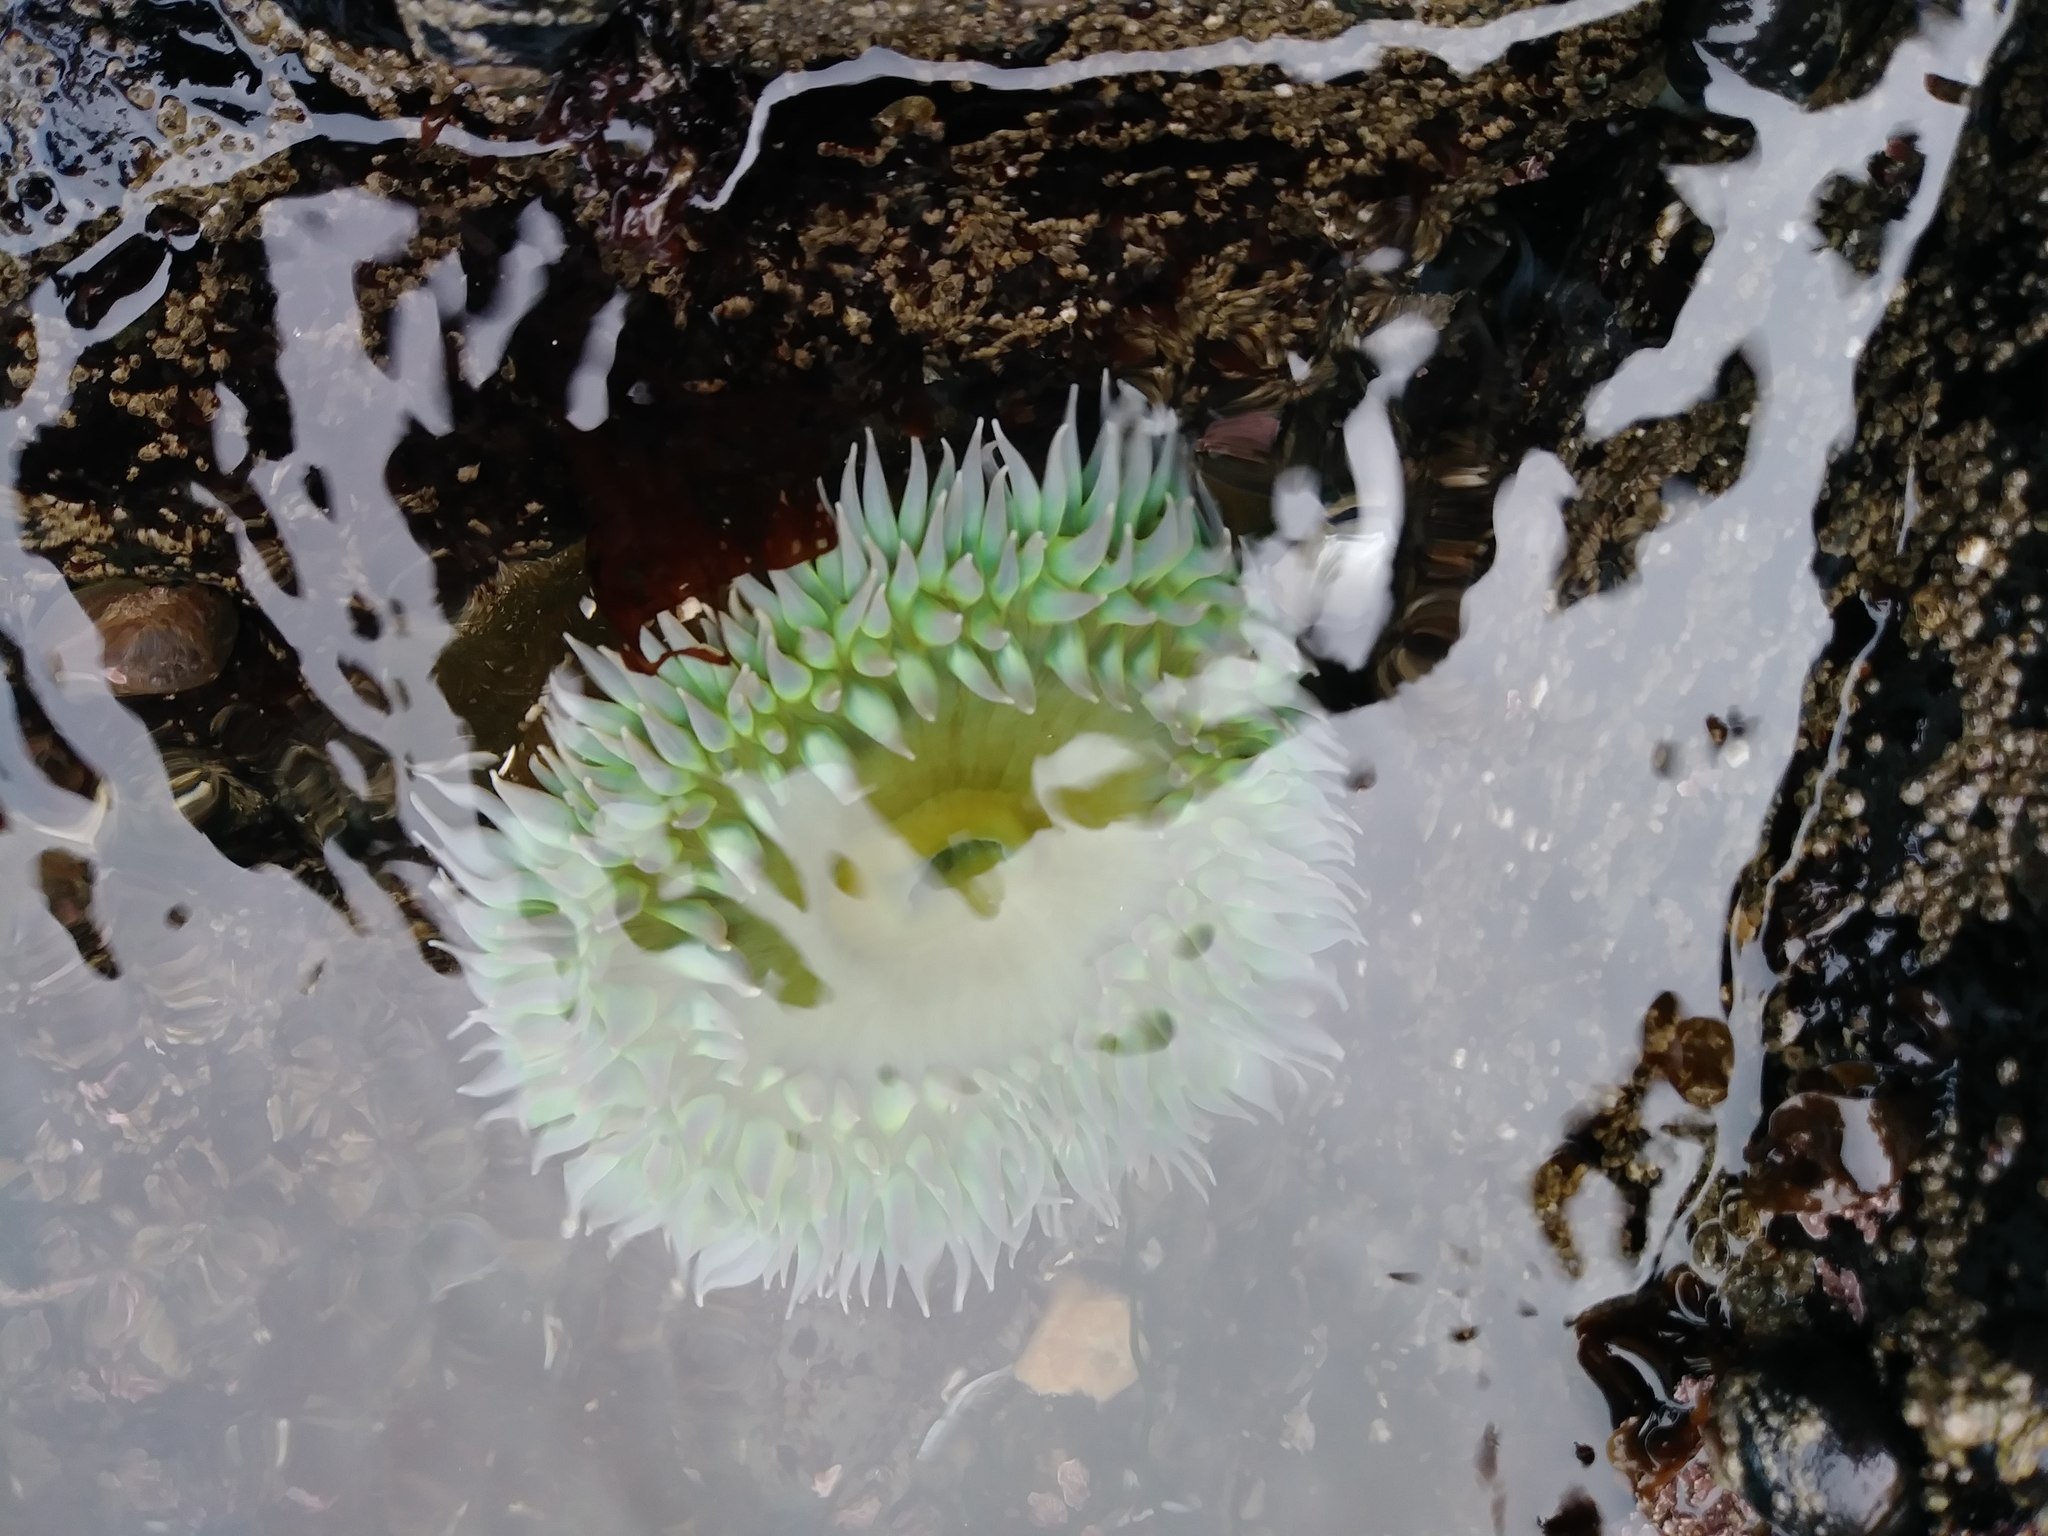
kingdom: Animalia
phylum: Cnidaria
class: Anthozoa
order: Actiniaria
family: Actiniidae
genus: Anthopleura
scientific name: Anthopleura xanthogrammica
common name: Giant green anemone
